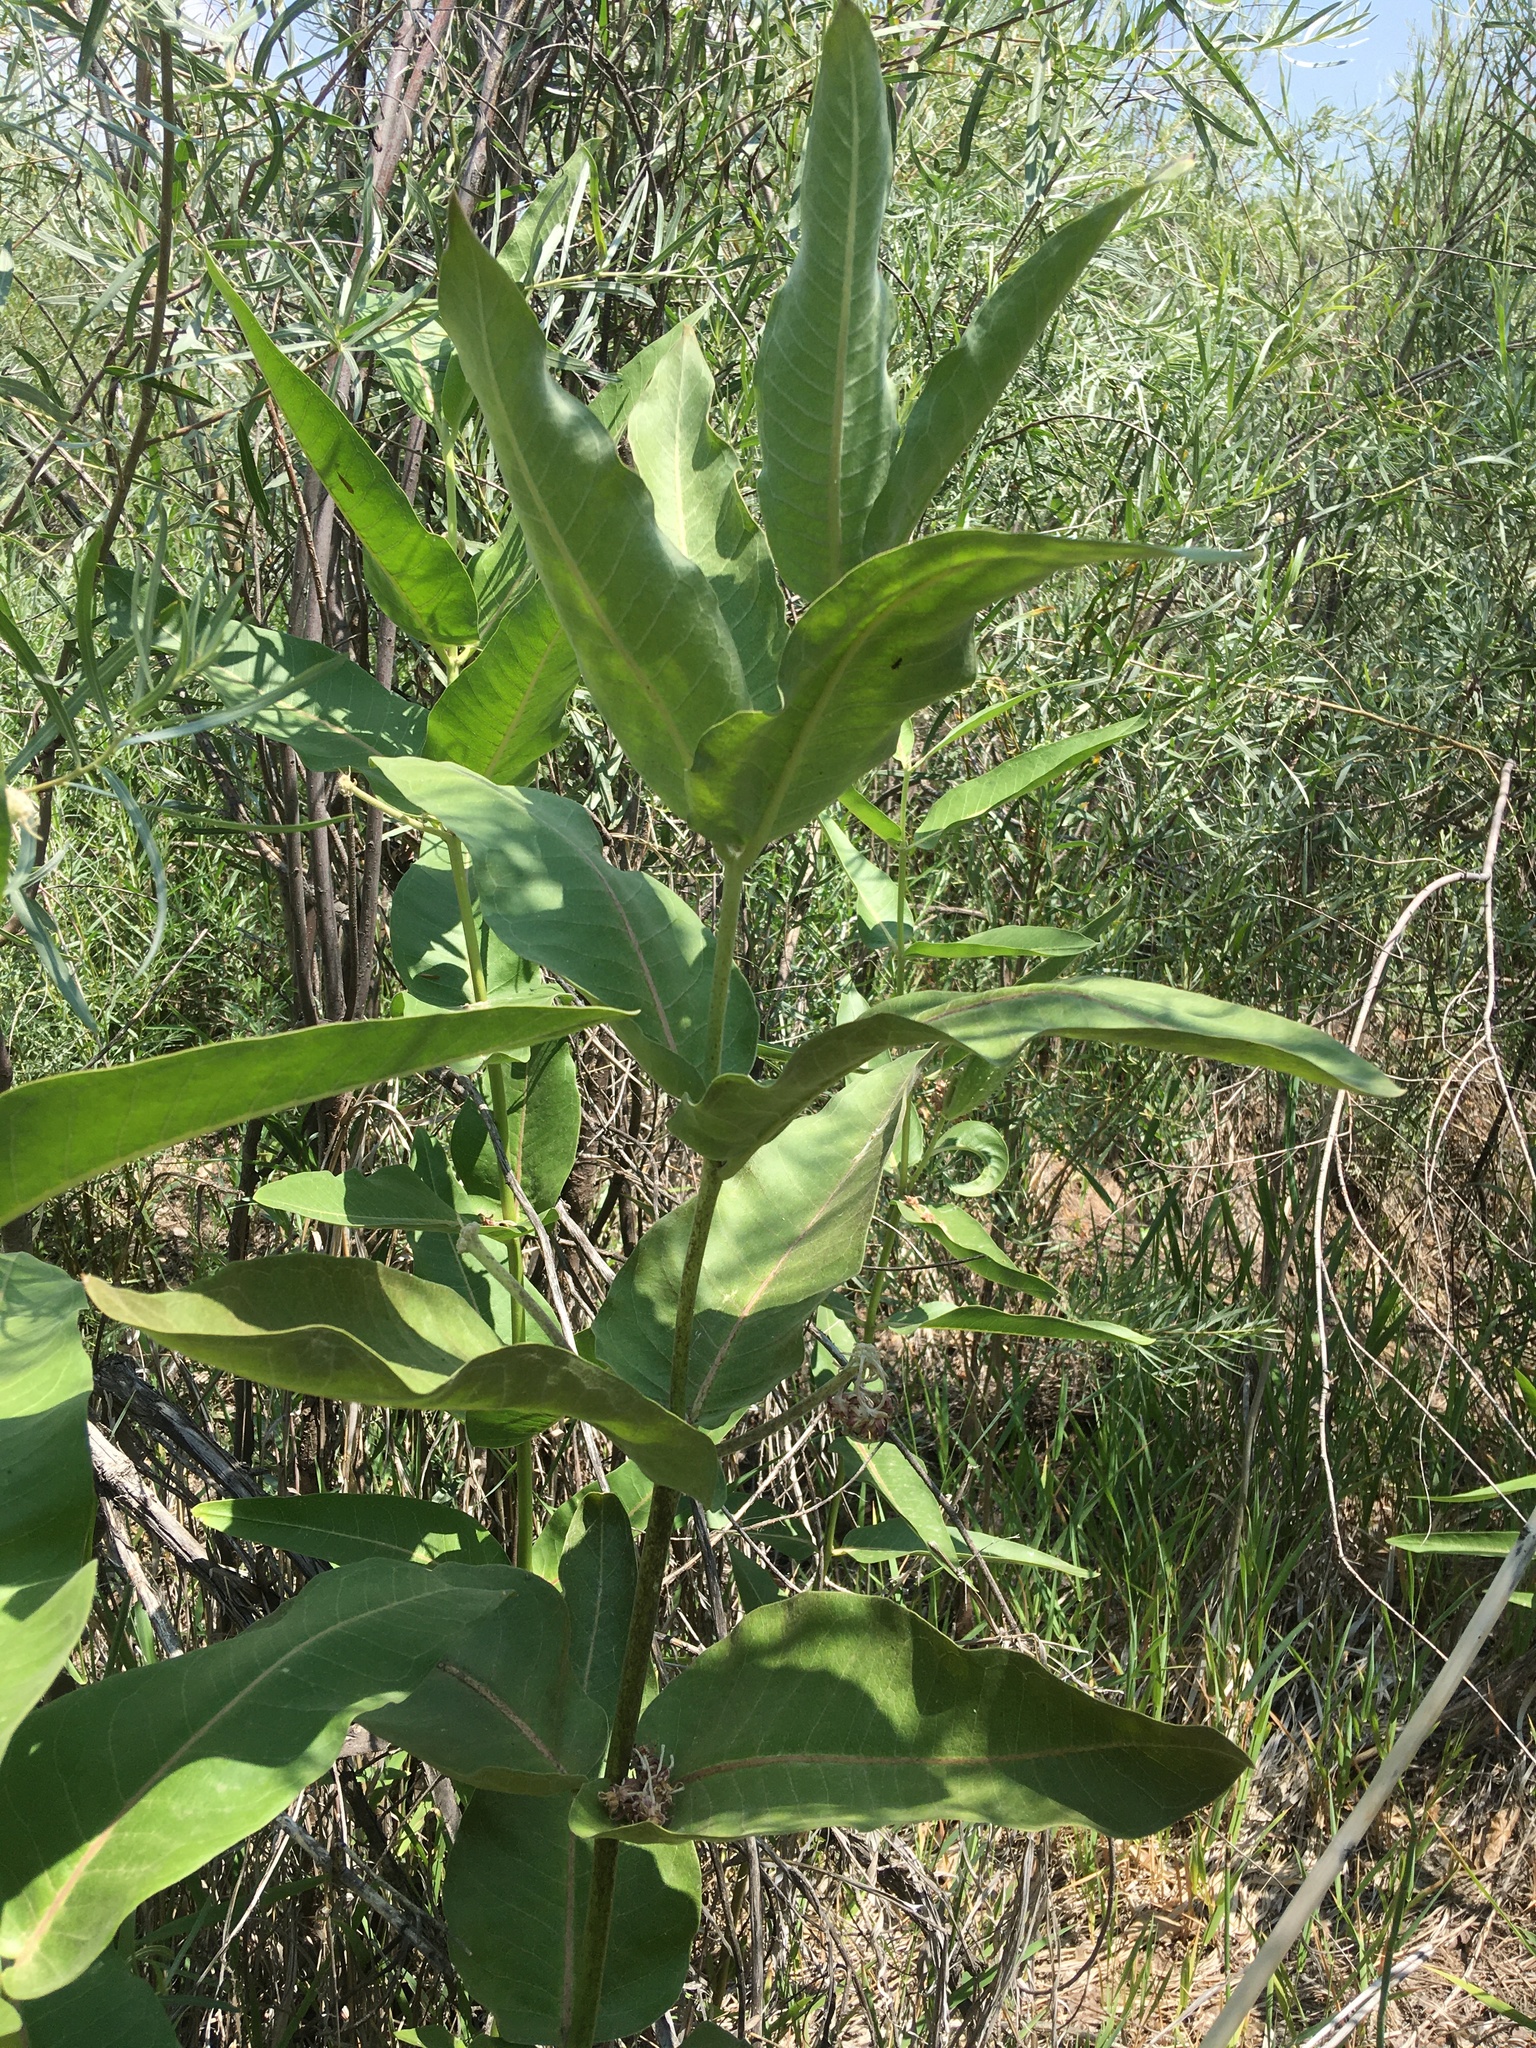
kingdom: Plantae
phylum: Tracheophyta
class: Magnoliopsida
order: Gentianales
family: Apocynaceae
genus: Asclepias
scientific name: Asclepias speciosa
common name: Showy milkweed
